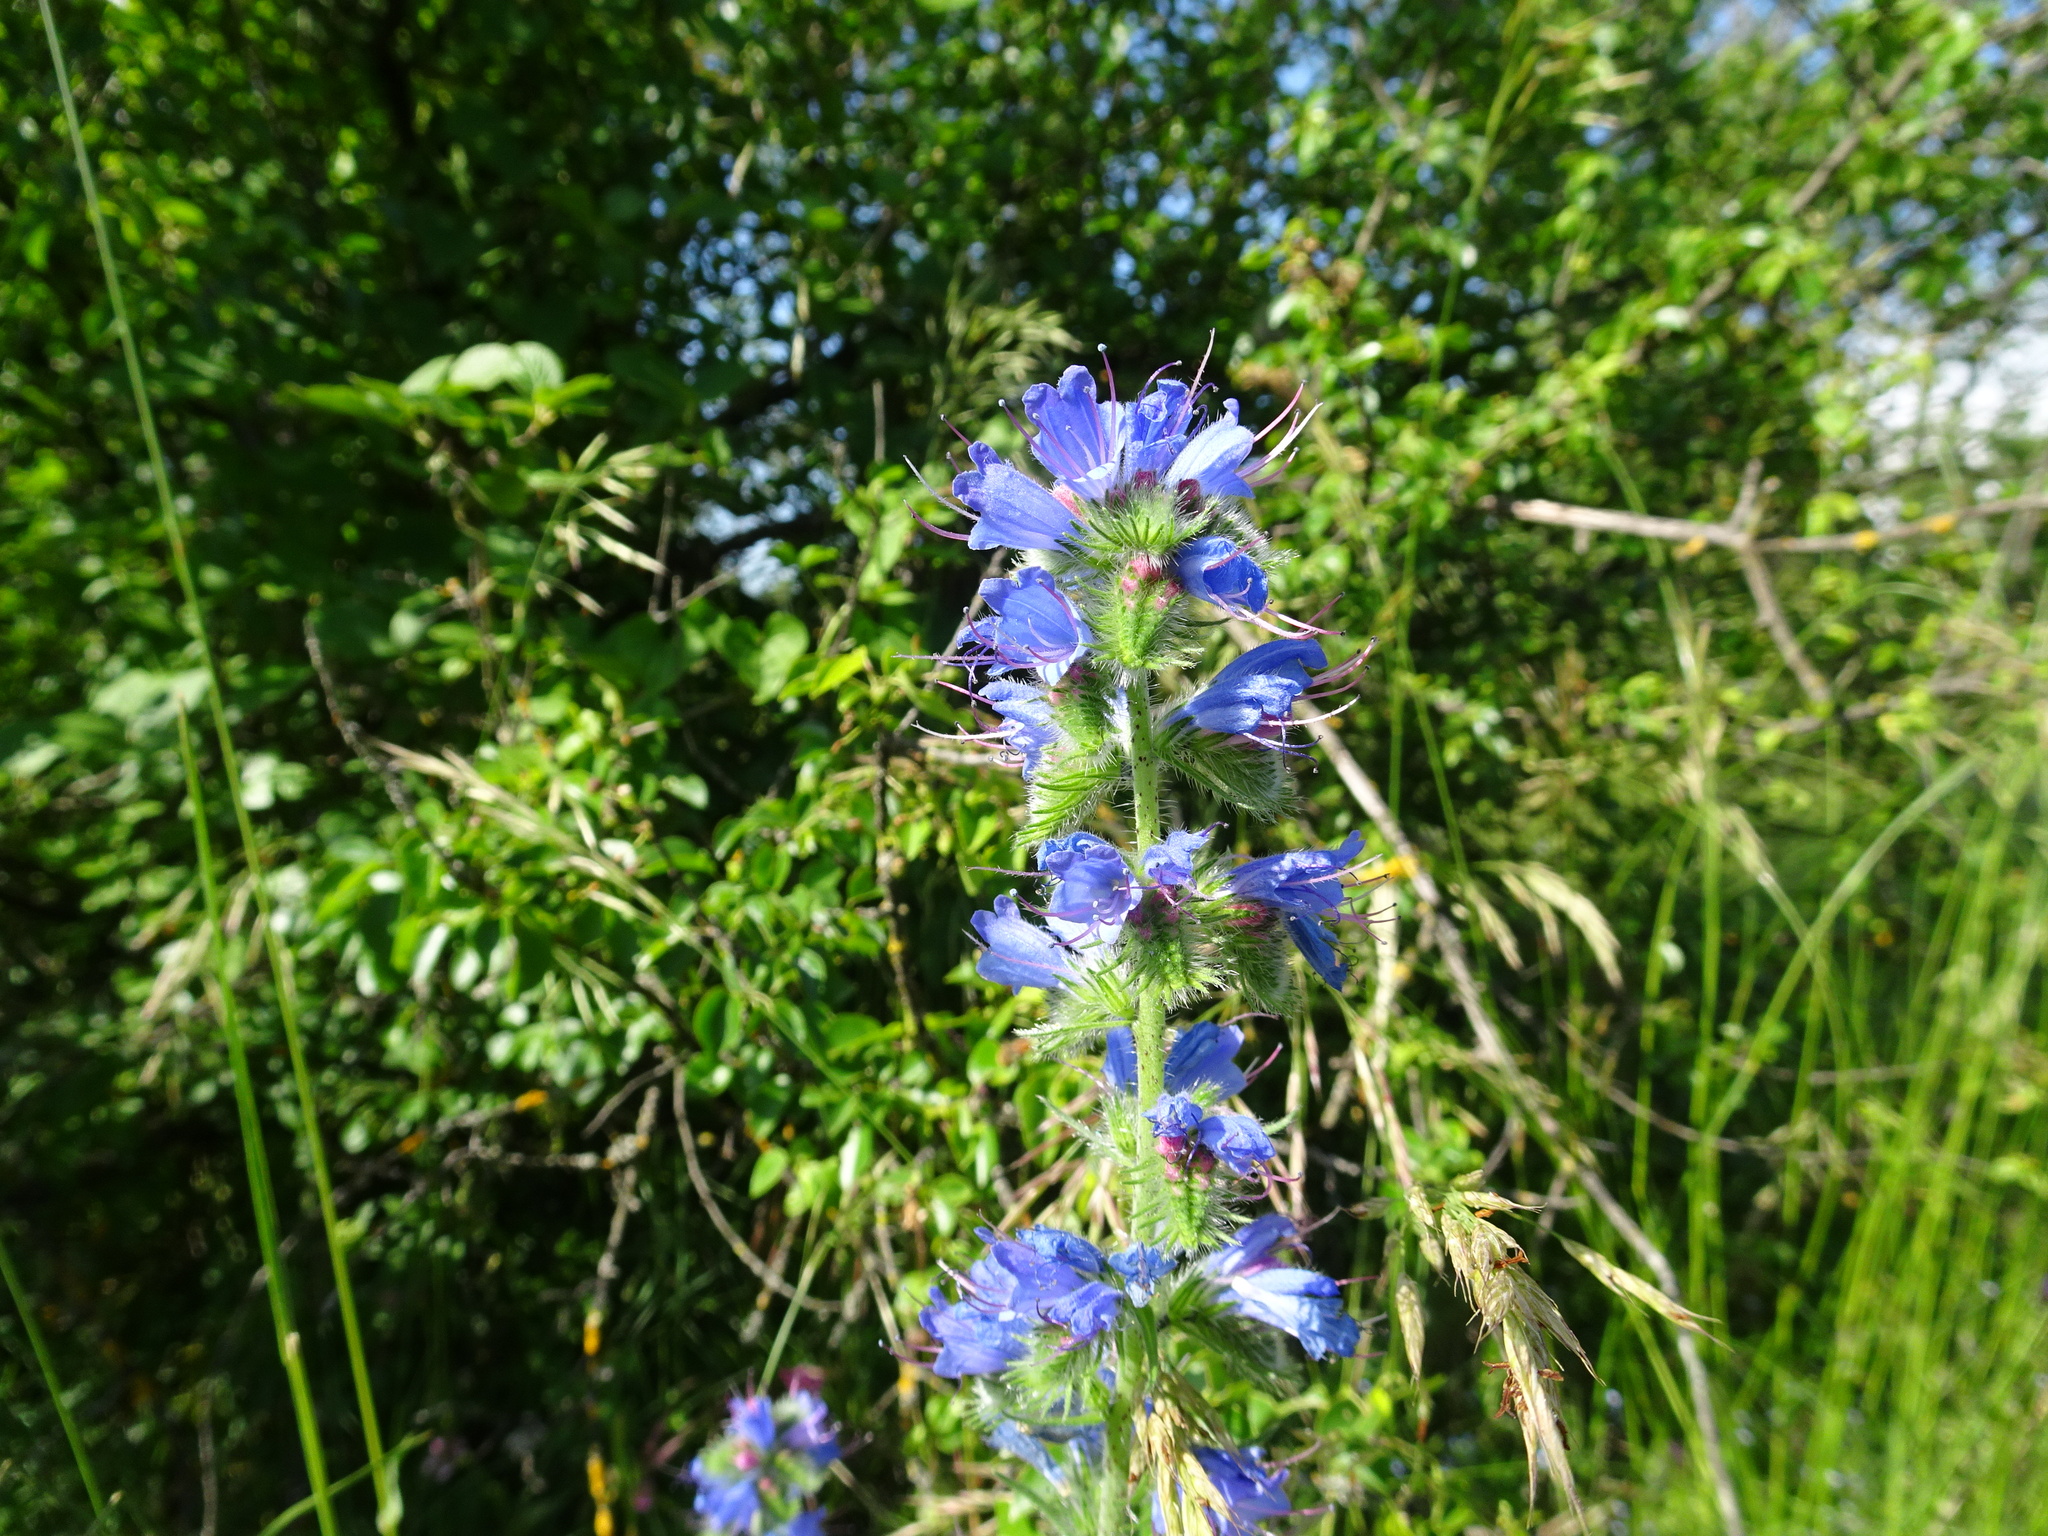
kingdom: Plantae
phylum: Tracheophyta
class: Magnoliopsida
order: Boraginales
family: Boraginaceae
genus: Echium
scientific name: Echium vulgare
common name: Common viper's bugloss
